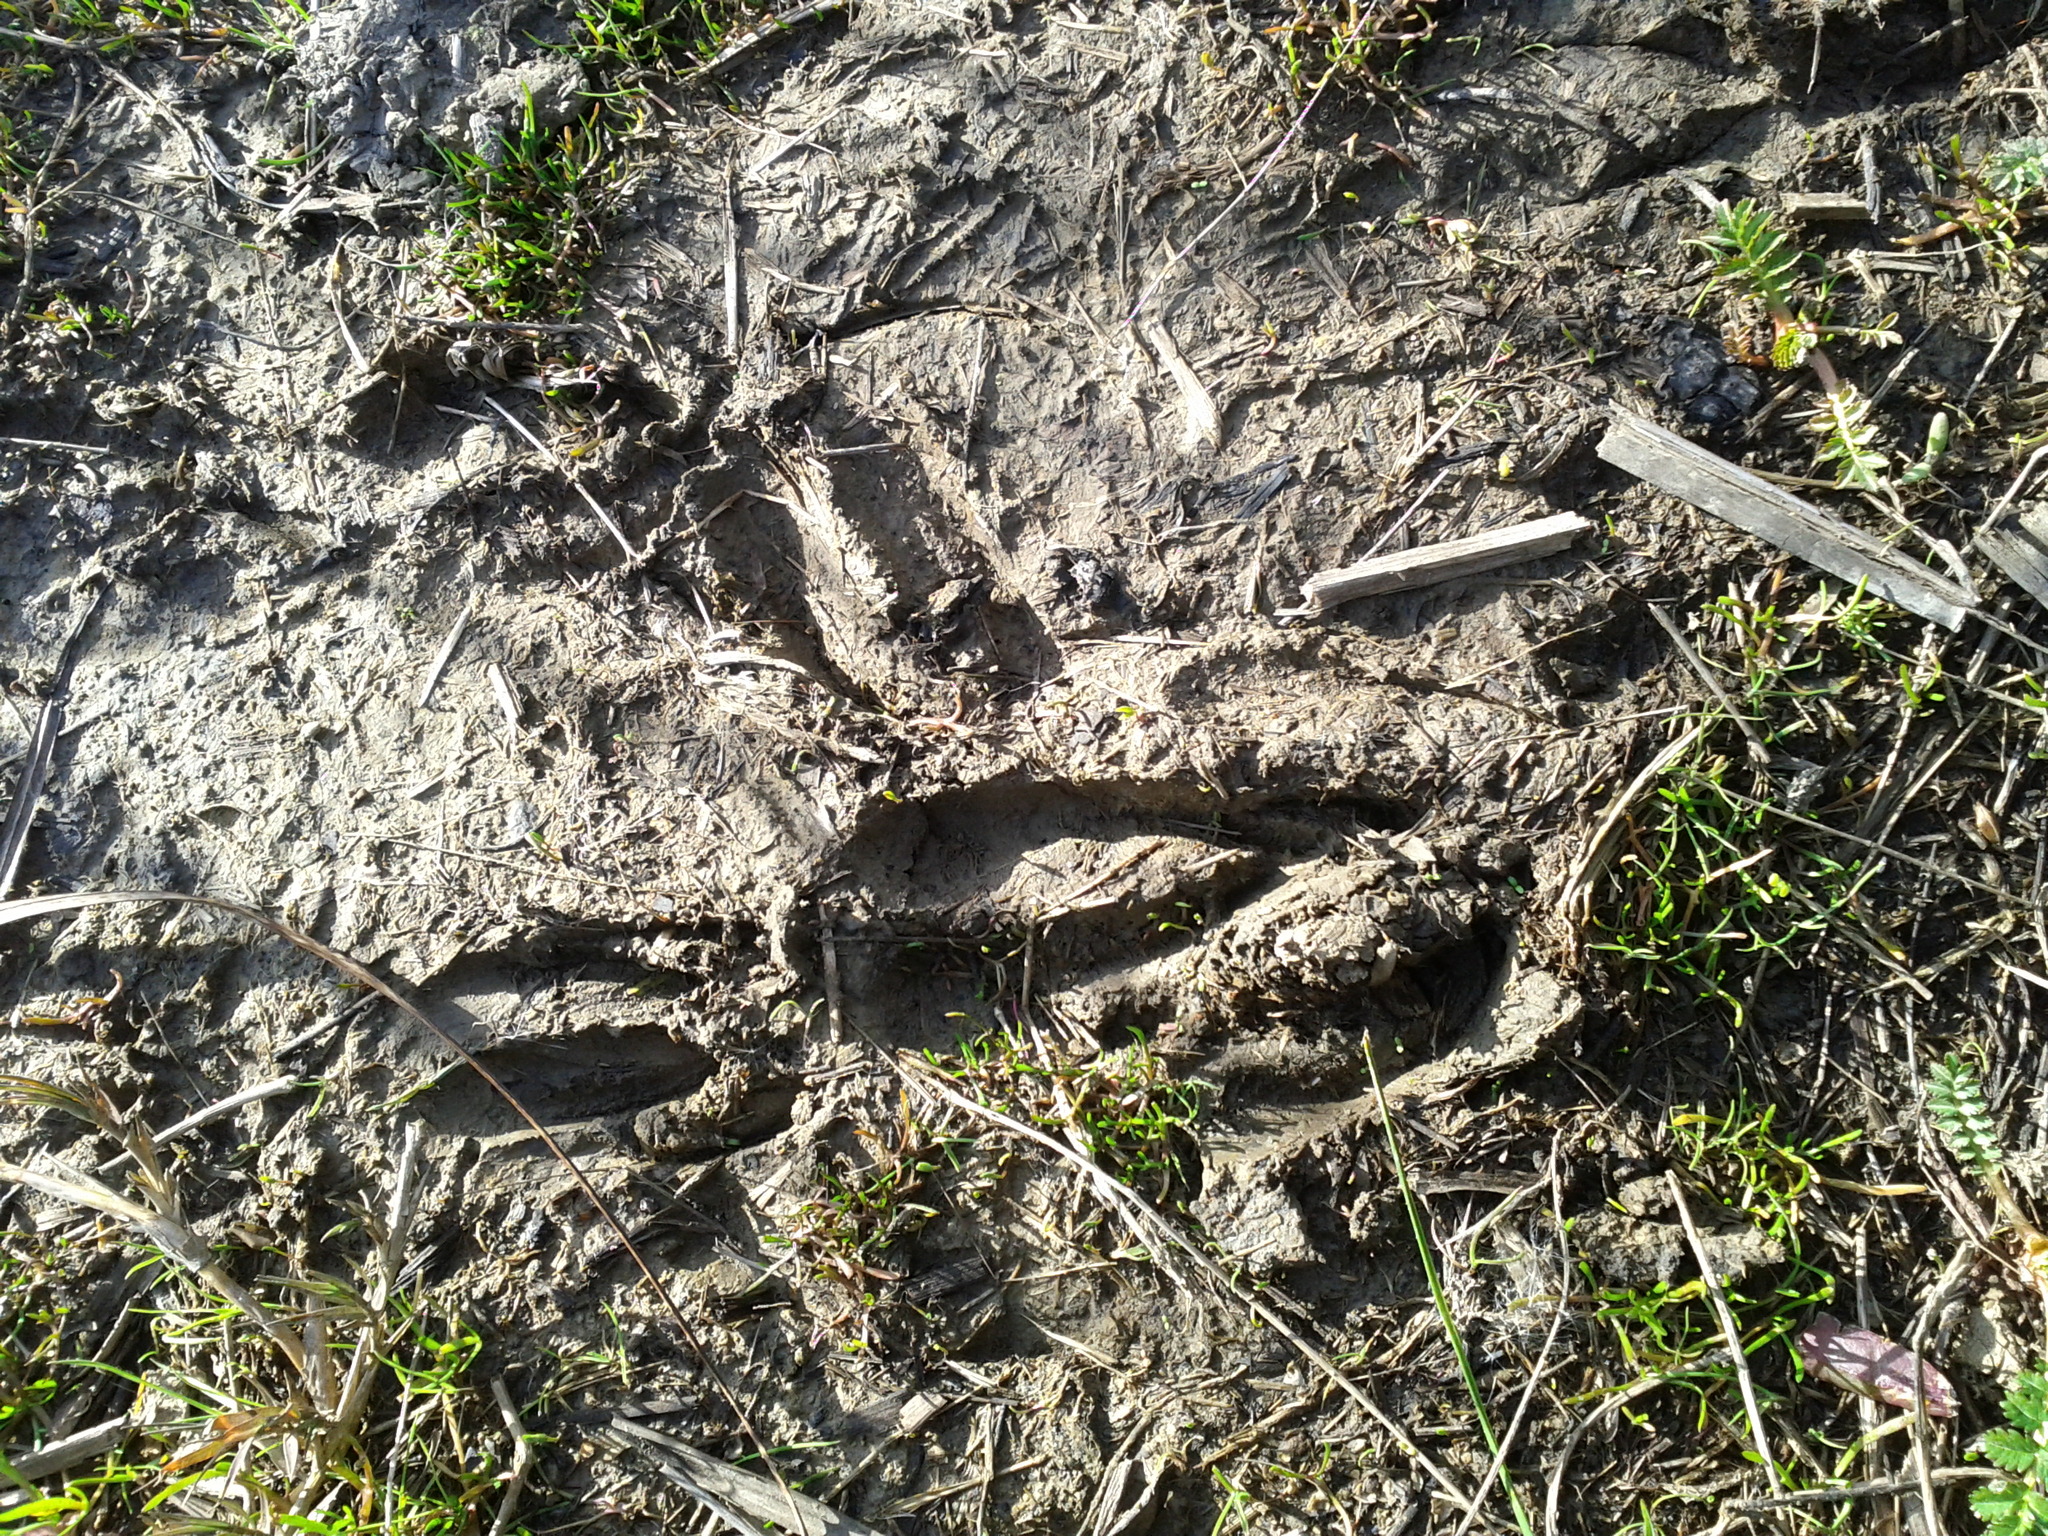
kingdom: Animalia
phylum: Chordata
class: Mammalia
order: Artiodactyla
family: Cervidae
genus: Odocoileus
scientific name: Odocoileus hemionus
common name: Mule deer
